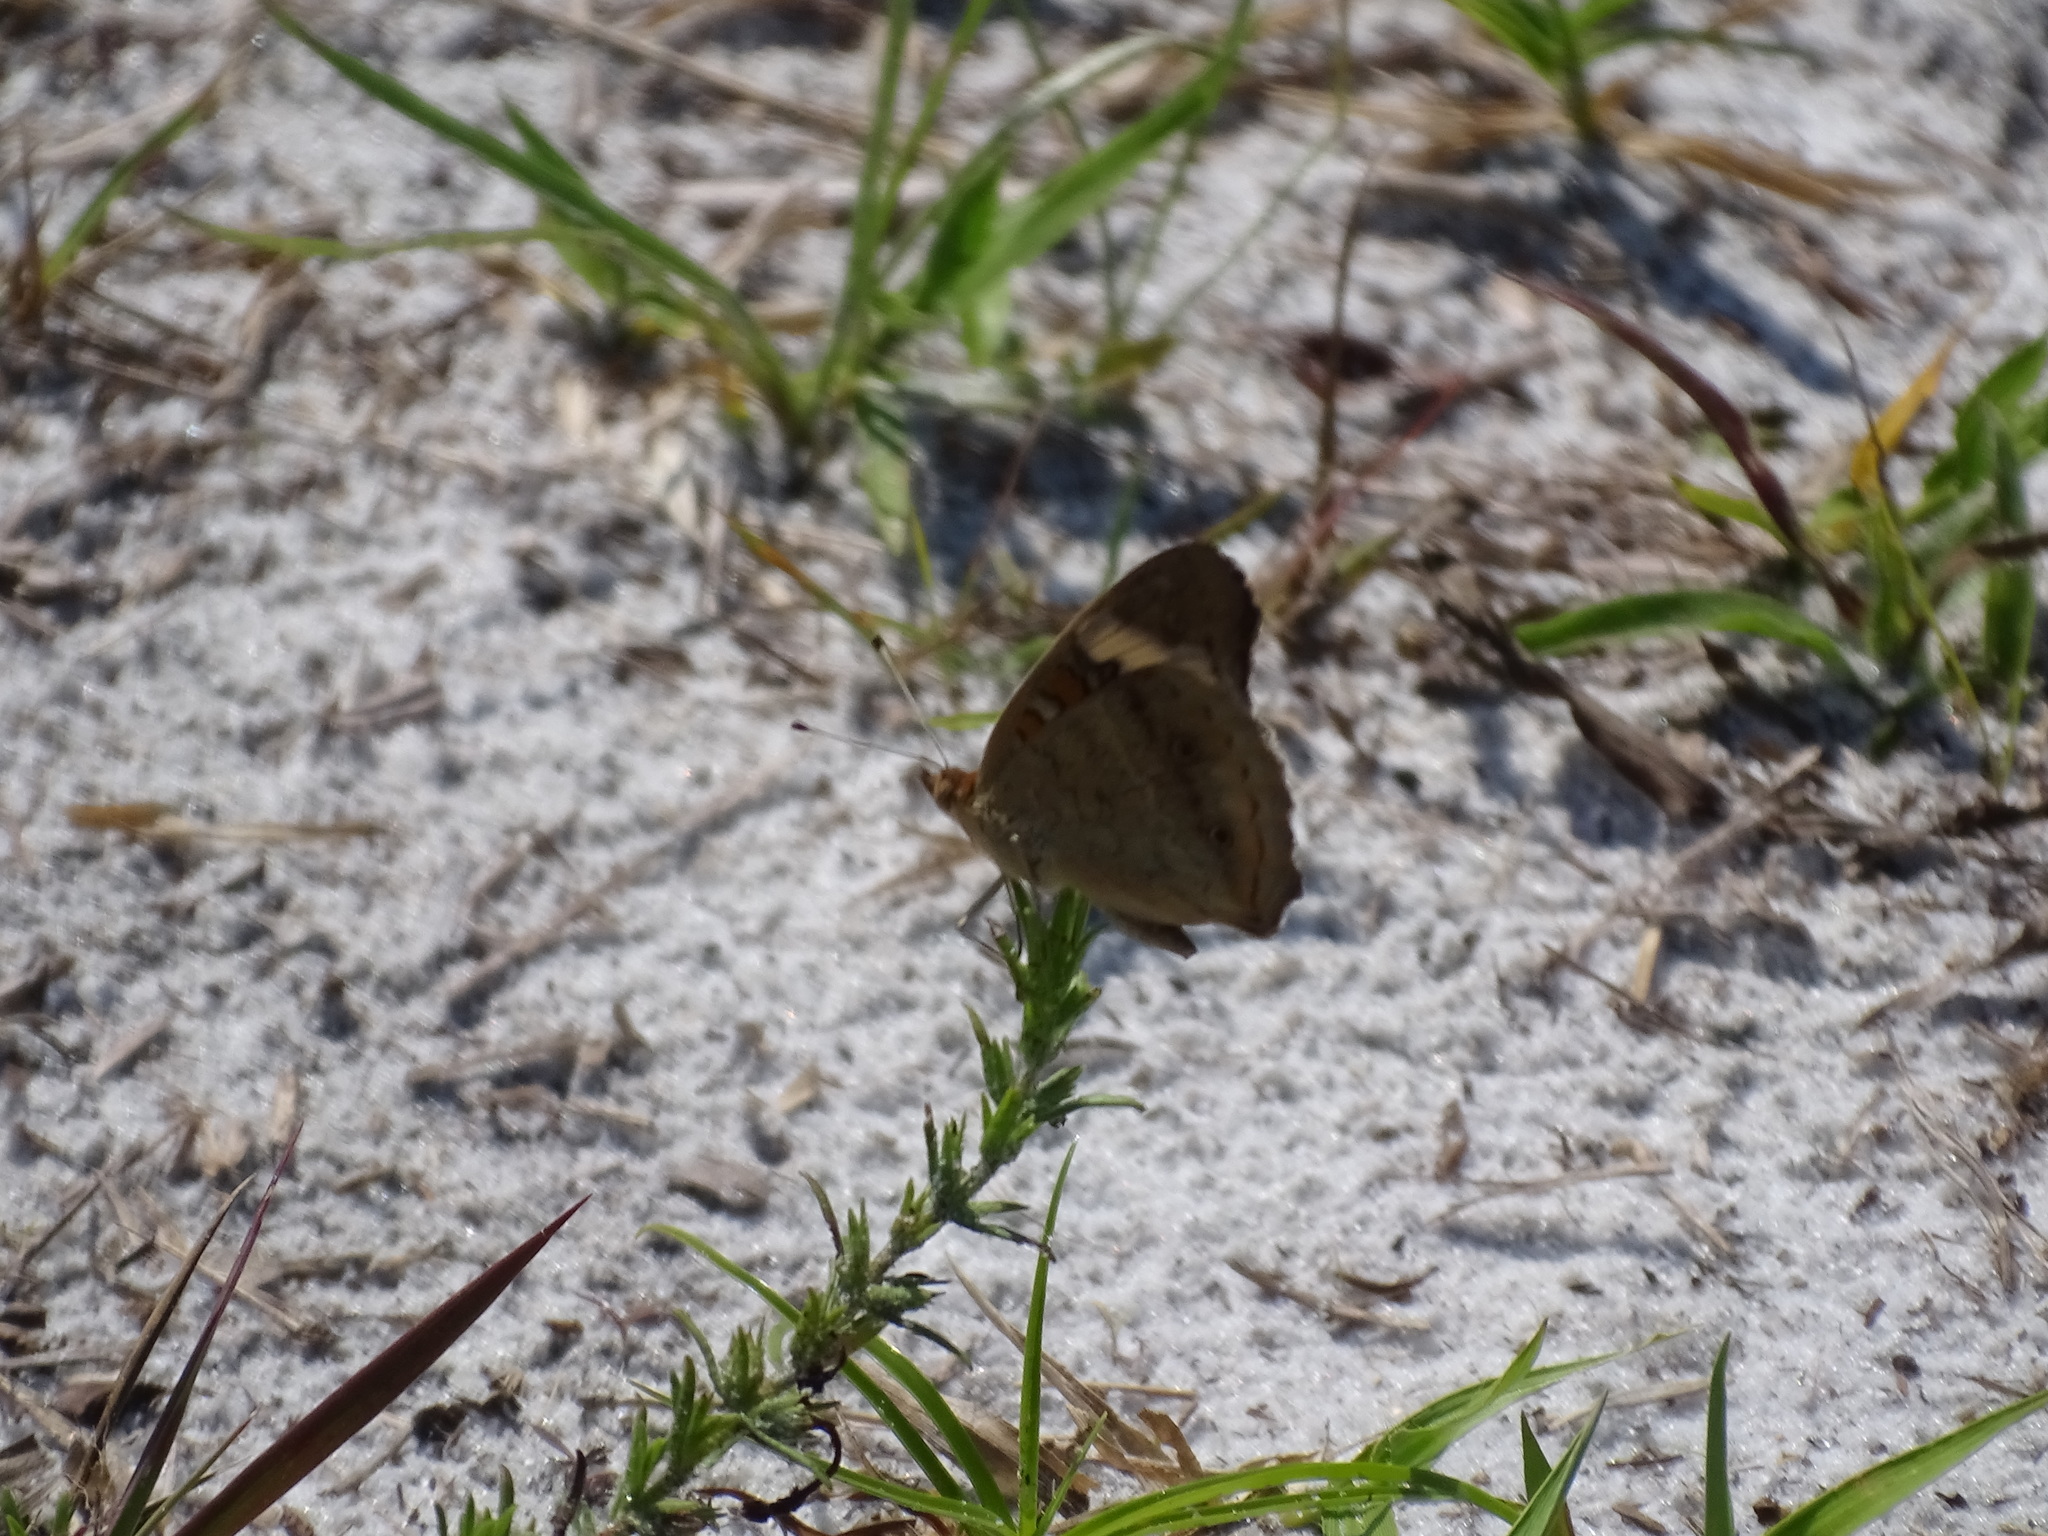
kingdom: Animalia
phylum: Arthropoda
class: Insecta
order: Lepidoptera
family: Nymphalidae
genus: Junonia
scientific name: Junonia coenia
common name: Common buckeye
